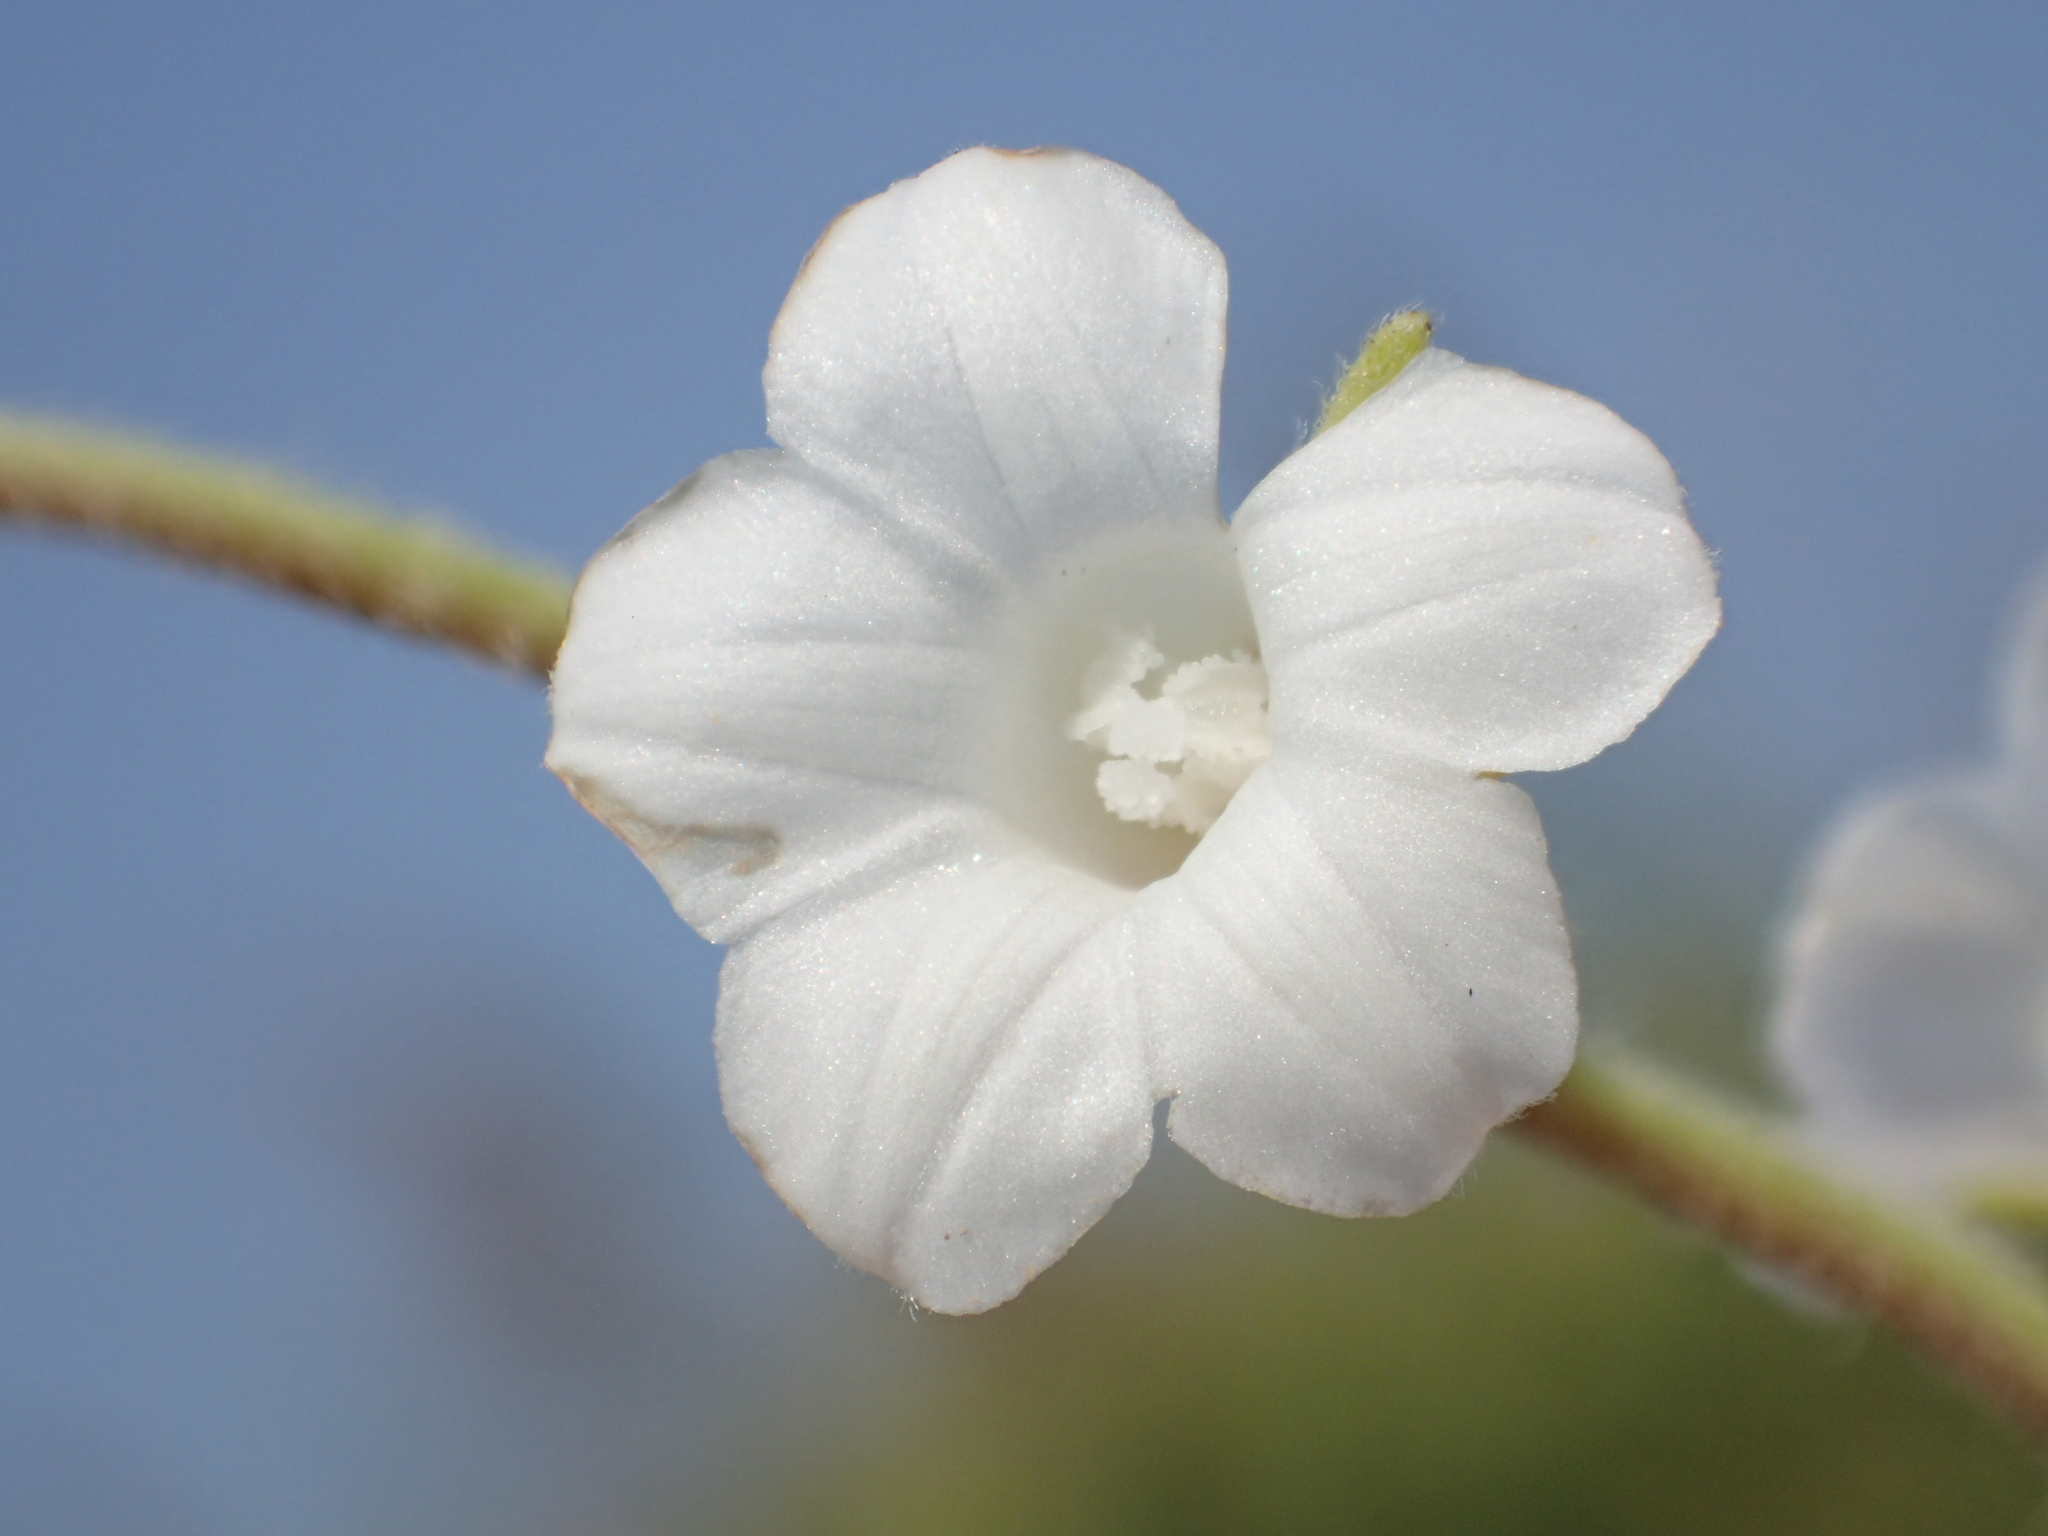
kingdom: Plantae
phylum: Tracheophyta
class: Magnoliopsida
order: Solanales
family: Convolvulaceae
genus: Ipomoea
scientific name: Ipomoea biflora
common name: Bellvine
